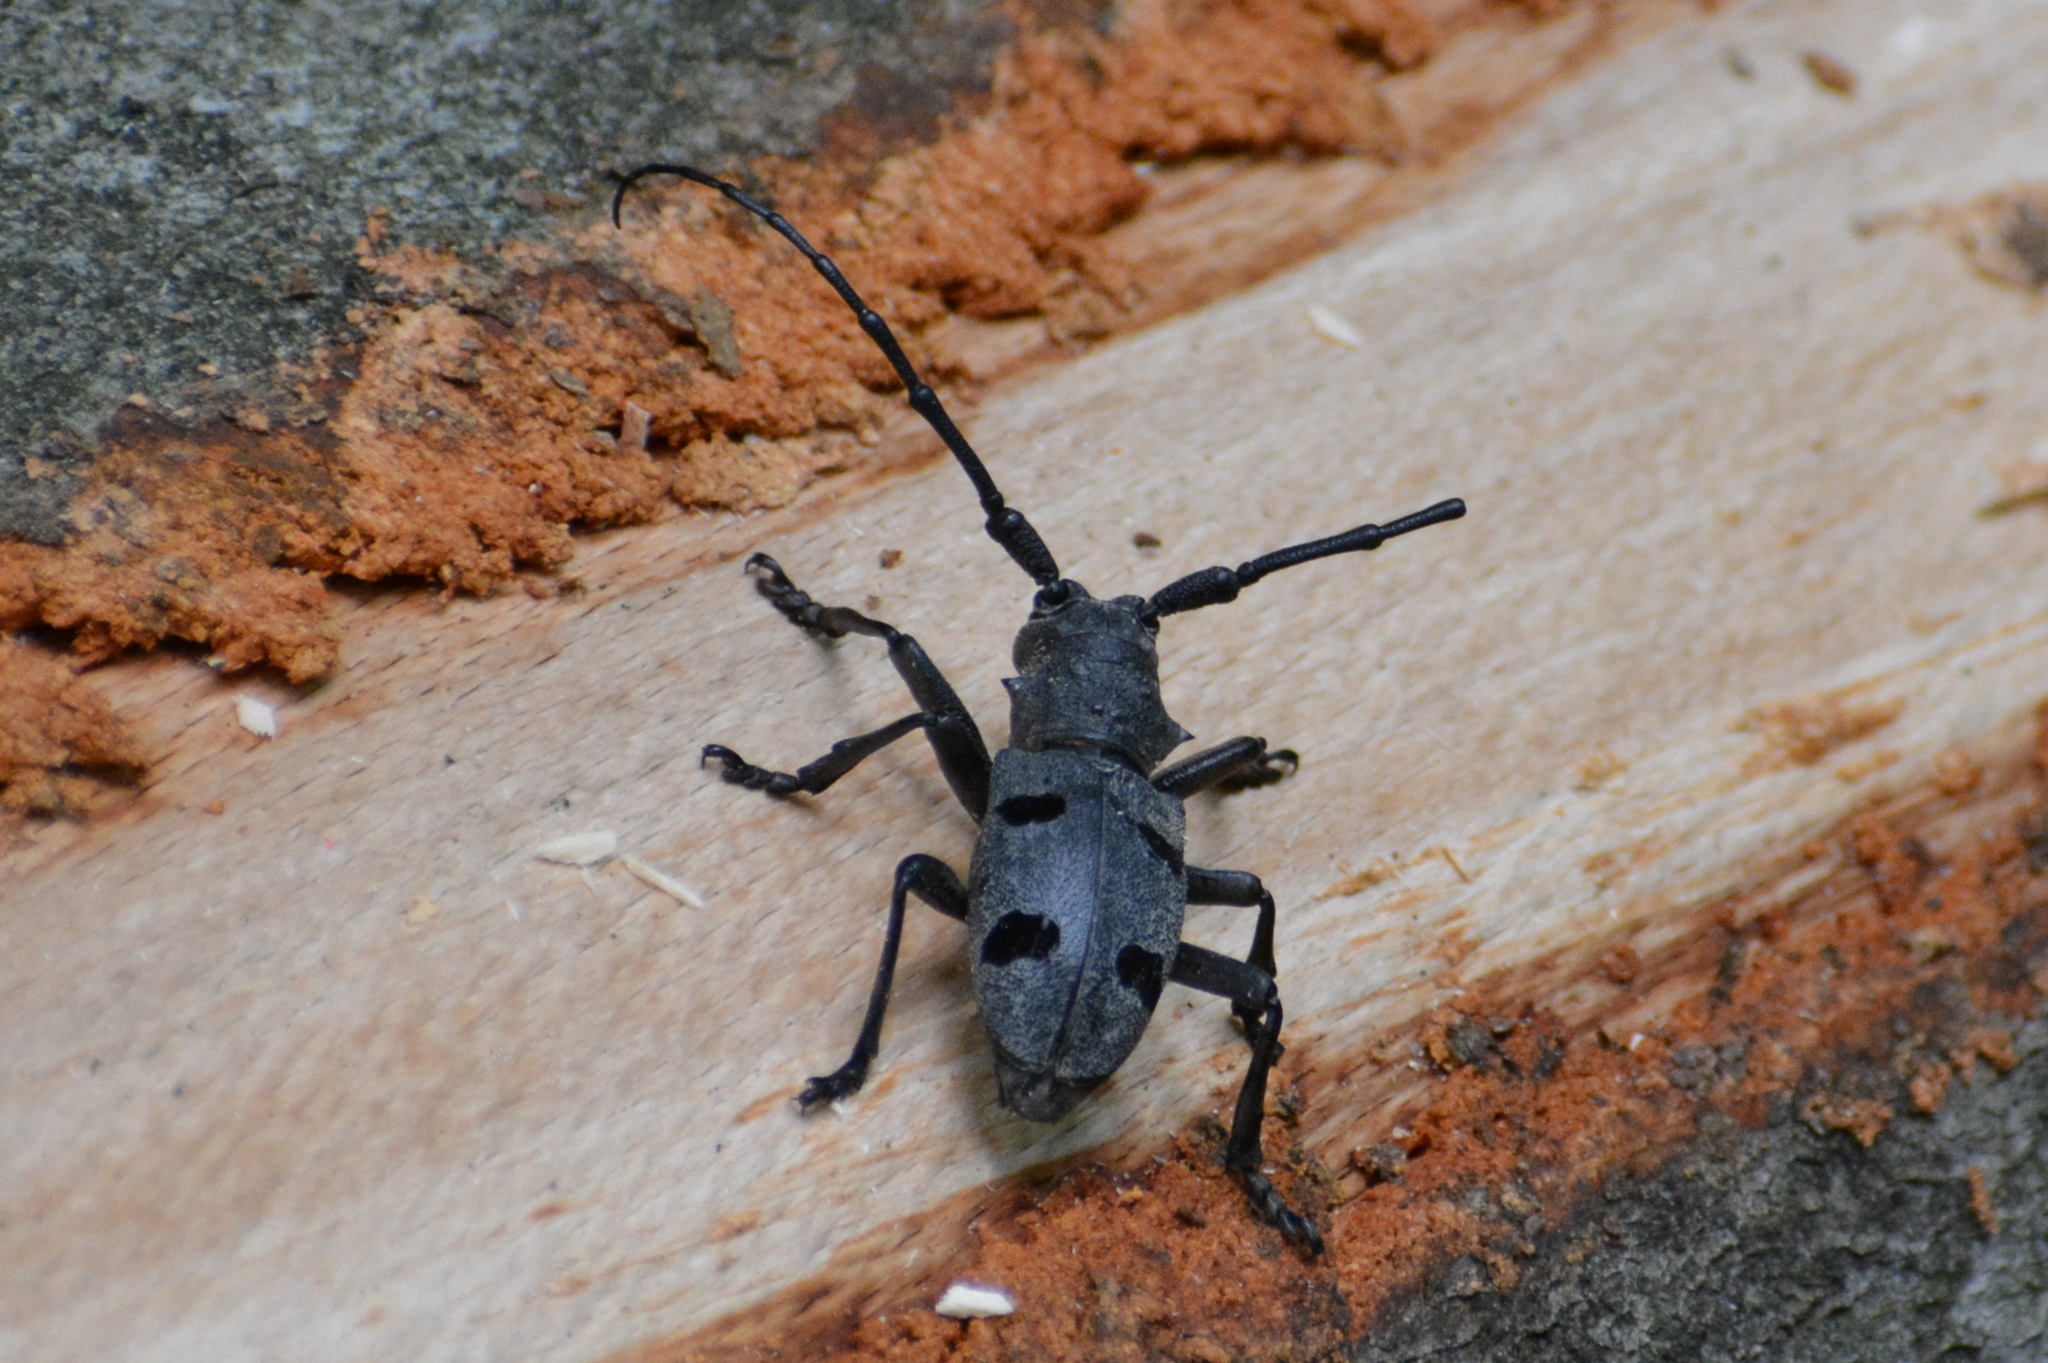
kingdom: Animalia
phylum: Arthropoda
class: Insecta
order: Coleoptera
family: Cerambycidae
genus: Morimus
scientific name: Morimus funereus
